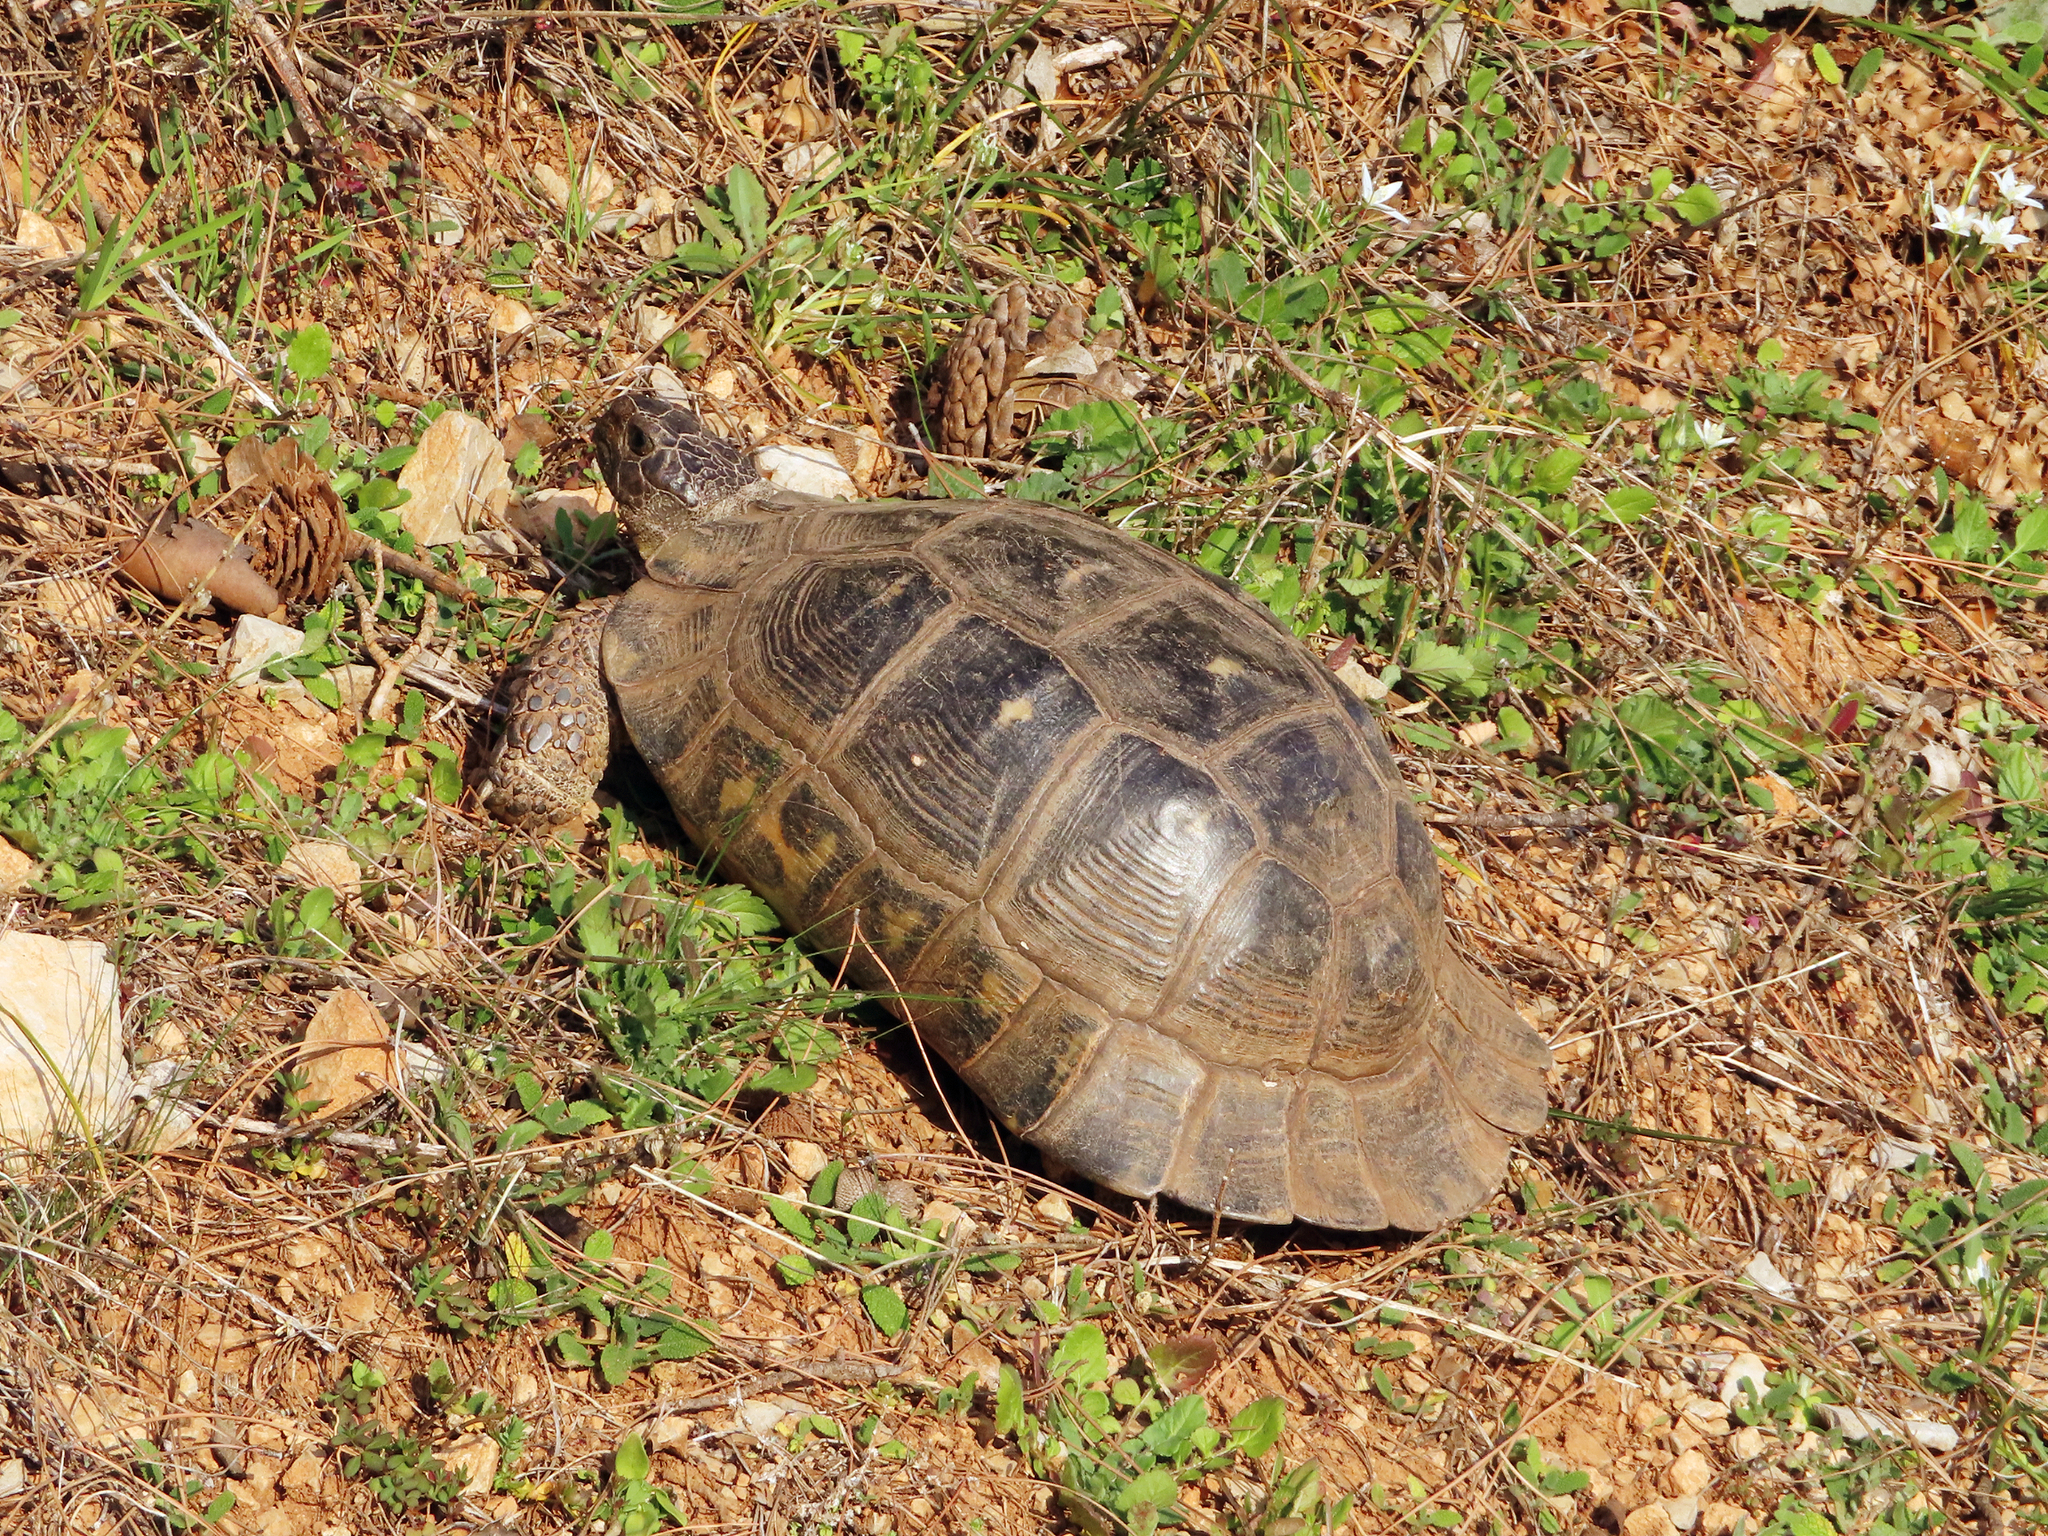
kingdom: Animalia
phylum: Chordata
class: Testudines
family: Testudinidae
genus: Testudo
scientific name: Testudo marginata
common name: Marginated tortoise
